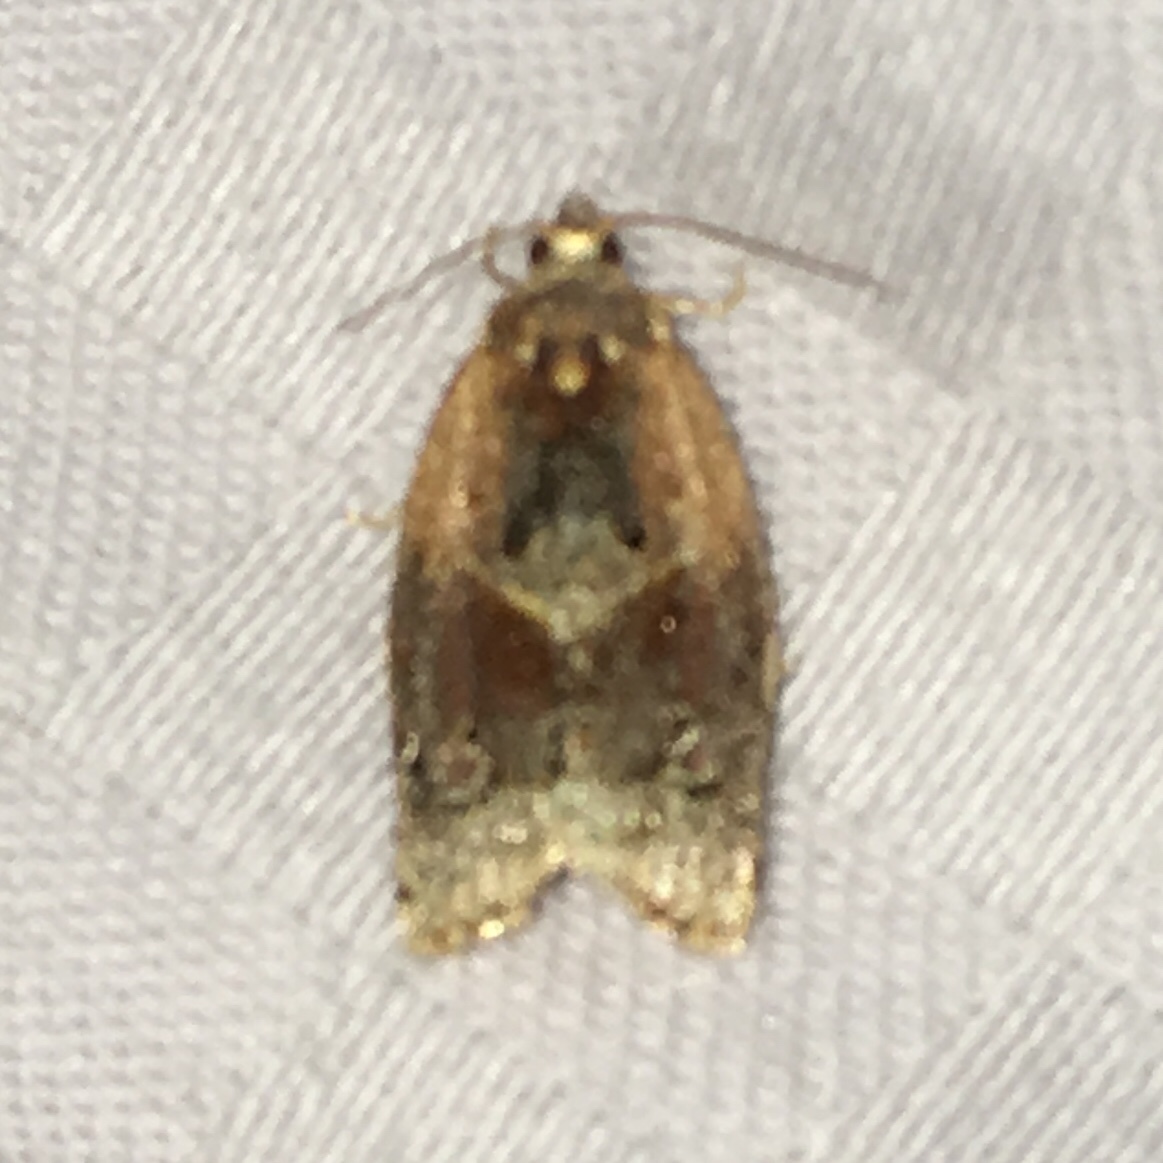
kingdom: Animalia
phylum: Arthropoda
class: Insecta
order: Lepidoptera
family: Tortricidae
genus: Argyrotaenia
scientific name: Argyrotaenia velutinana
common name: Red-banded leafroller moth
